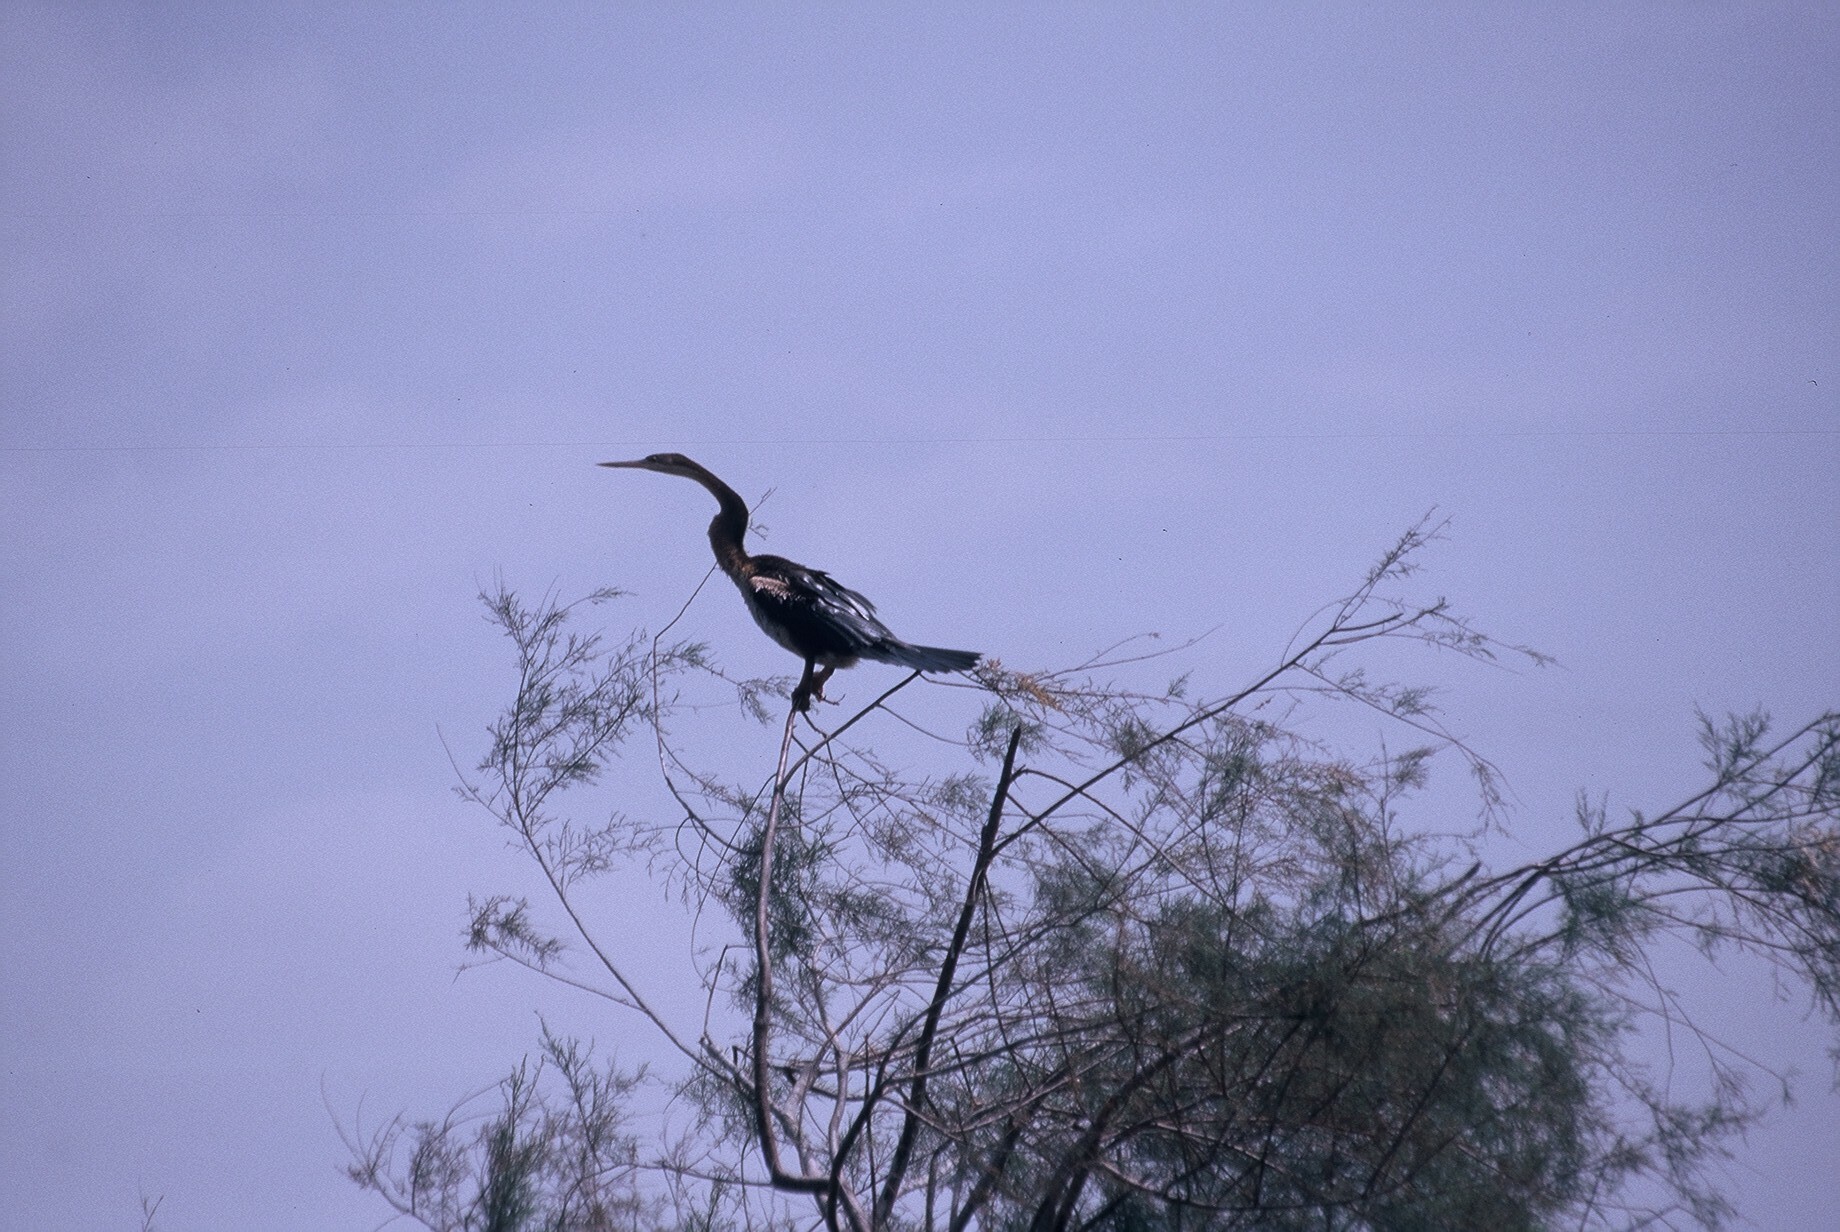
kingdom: Animalia
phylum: Chordata
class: Aves
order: Suliformes
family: Anhingidae
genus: Anhinga
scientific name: Anhinga rufa
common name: African darter
